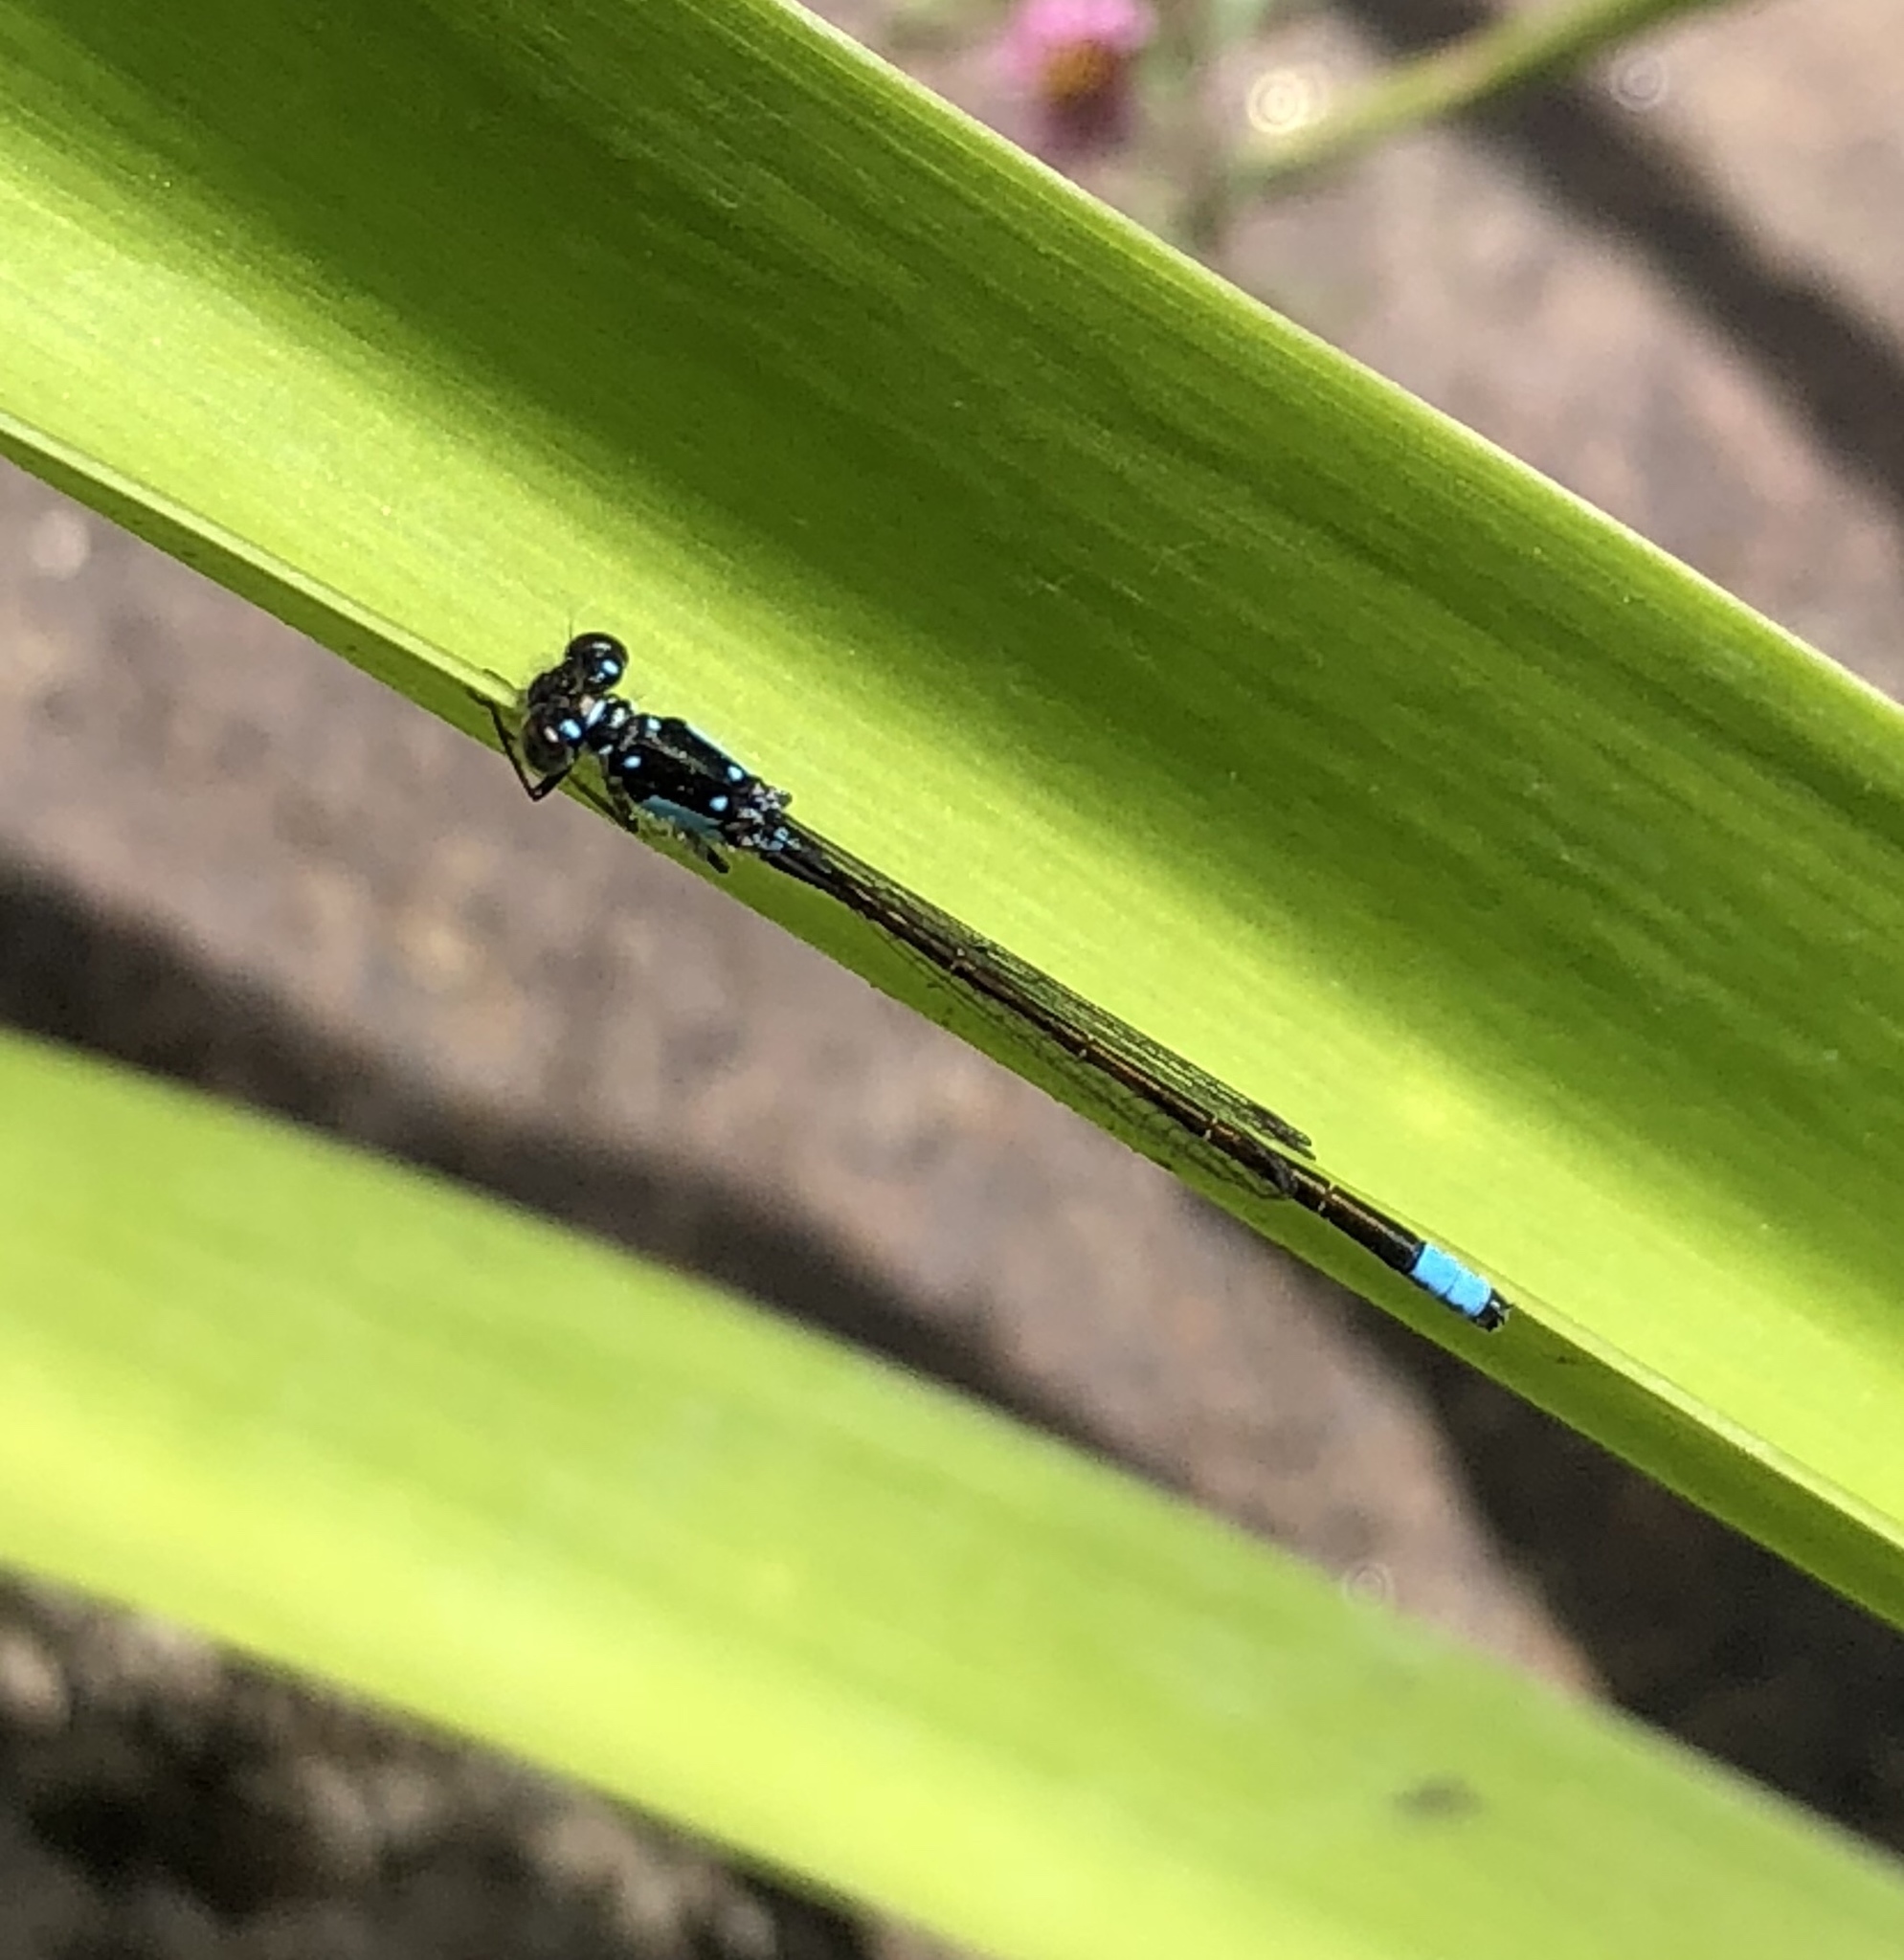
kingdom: Animalia
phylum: Arthropoda
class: Insecta
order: Odonata
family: Coenagrionidae
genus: Ischnura
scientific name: Ischnura cervula
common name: Pacific forktail
